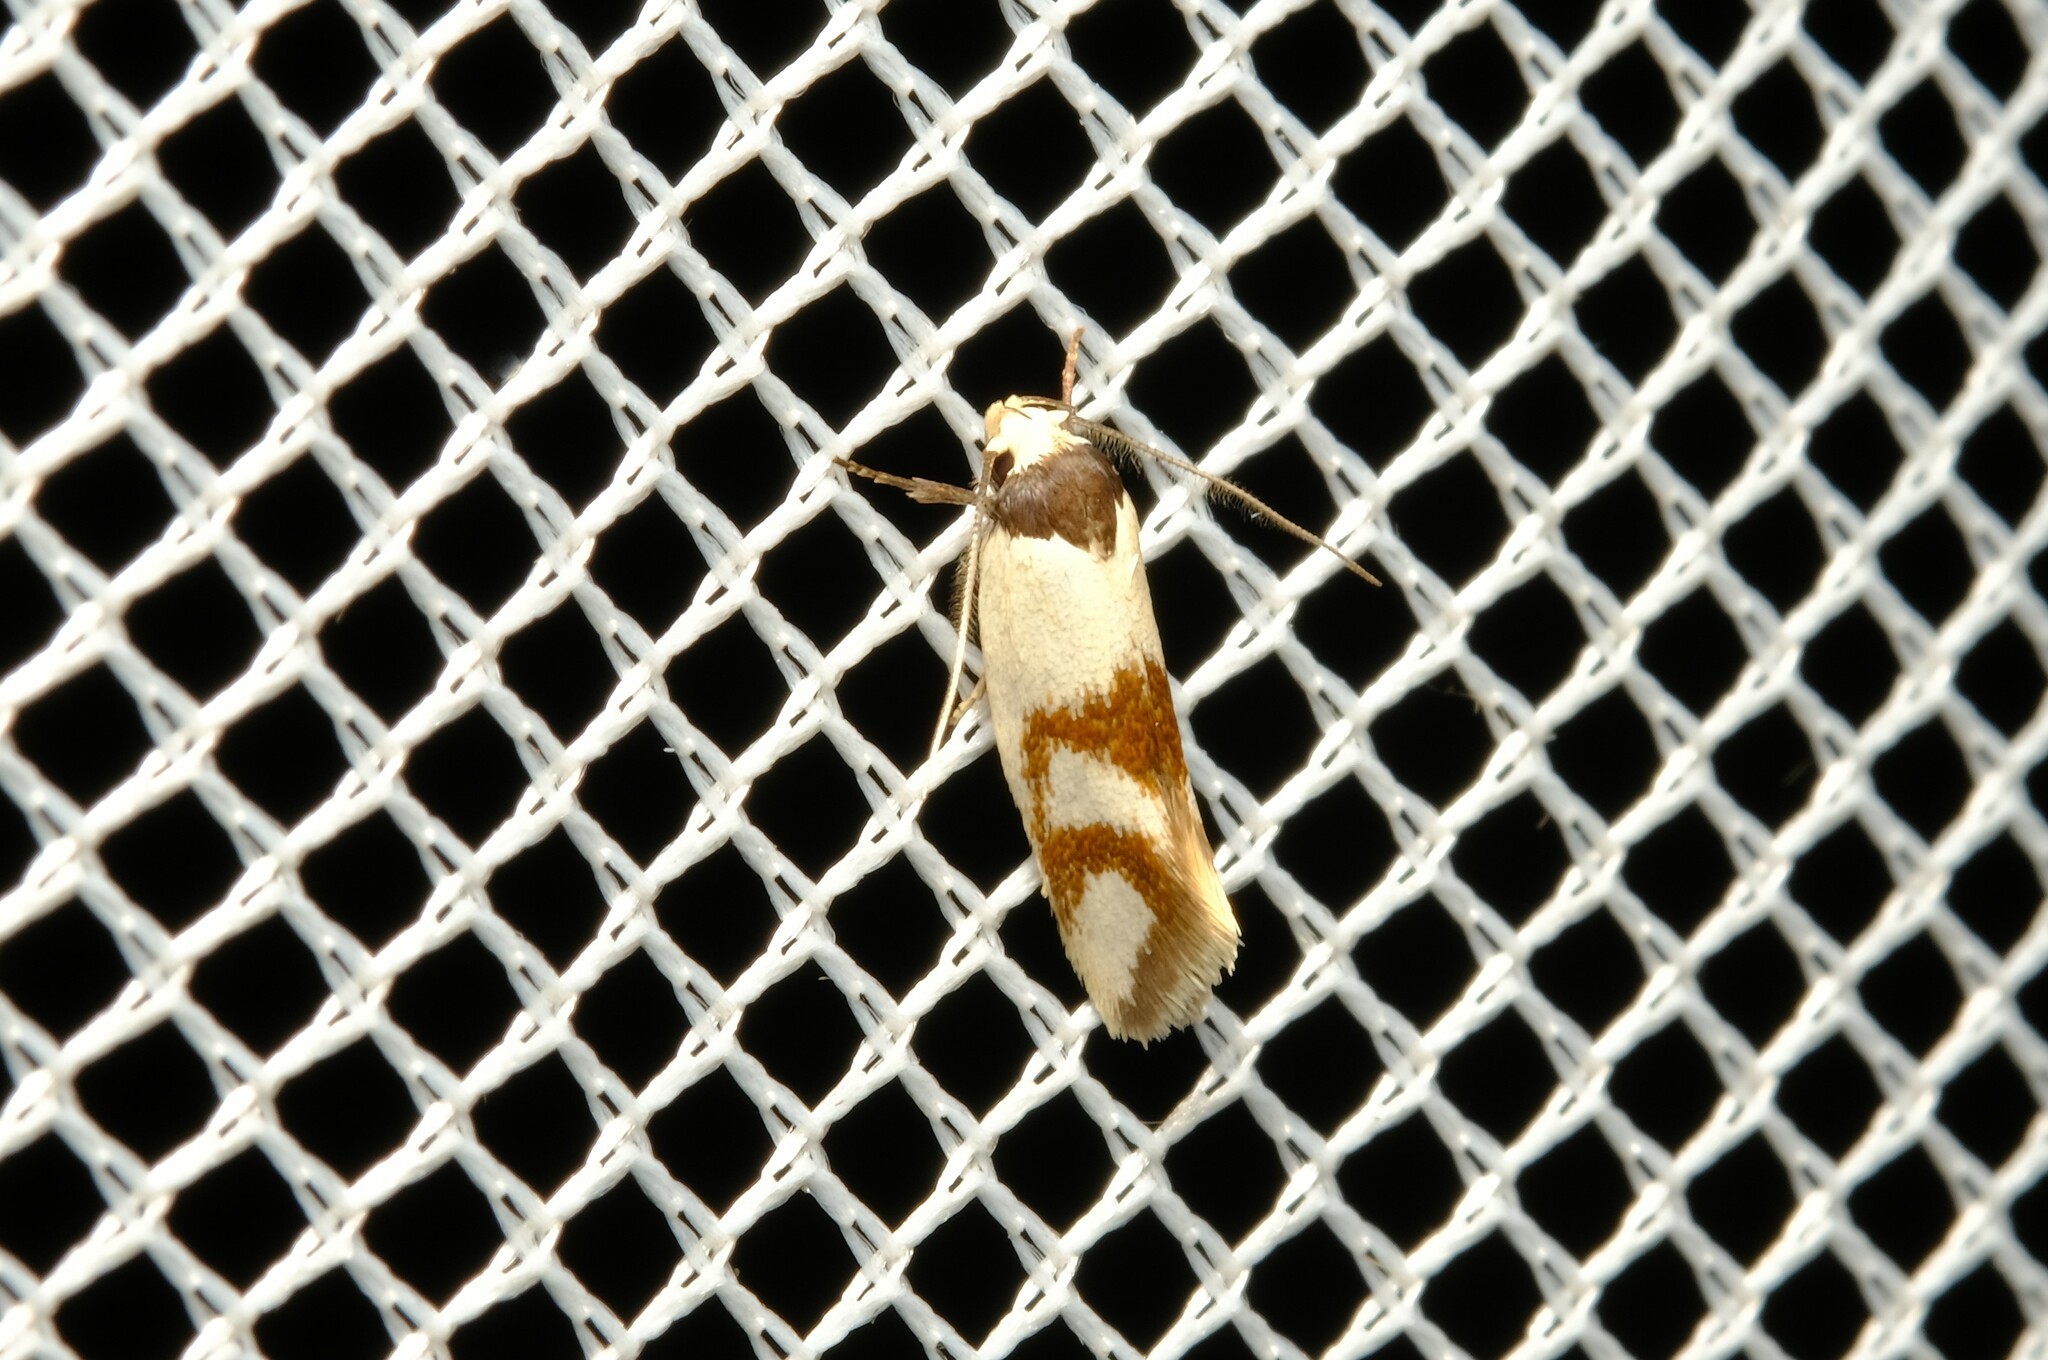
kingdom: Animalia
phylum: Arthropoda
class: Insecta
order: Lepidoptera
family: Oecophoridae
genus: Antipterna
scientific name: Antipterna trilicella
